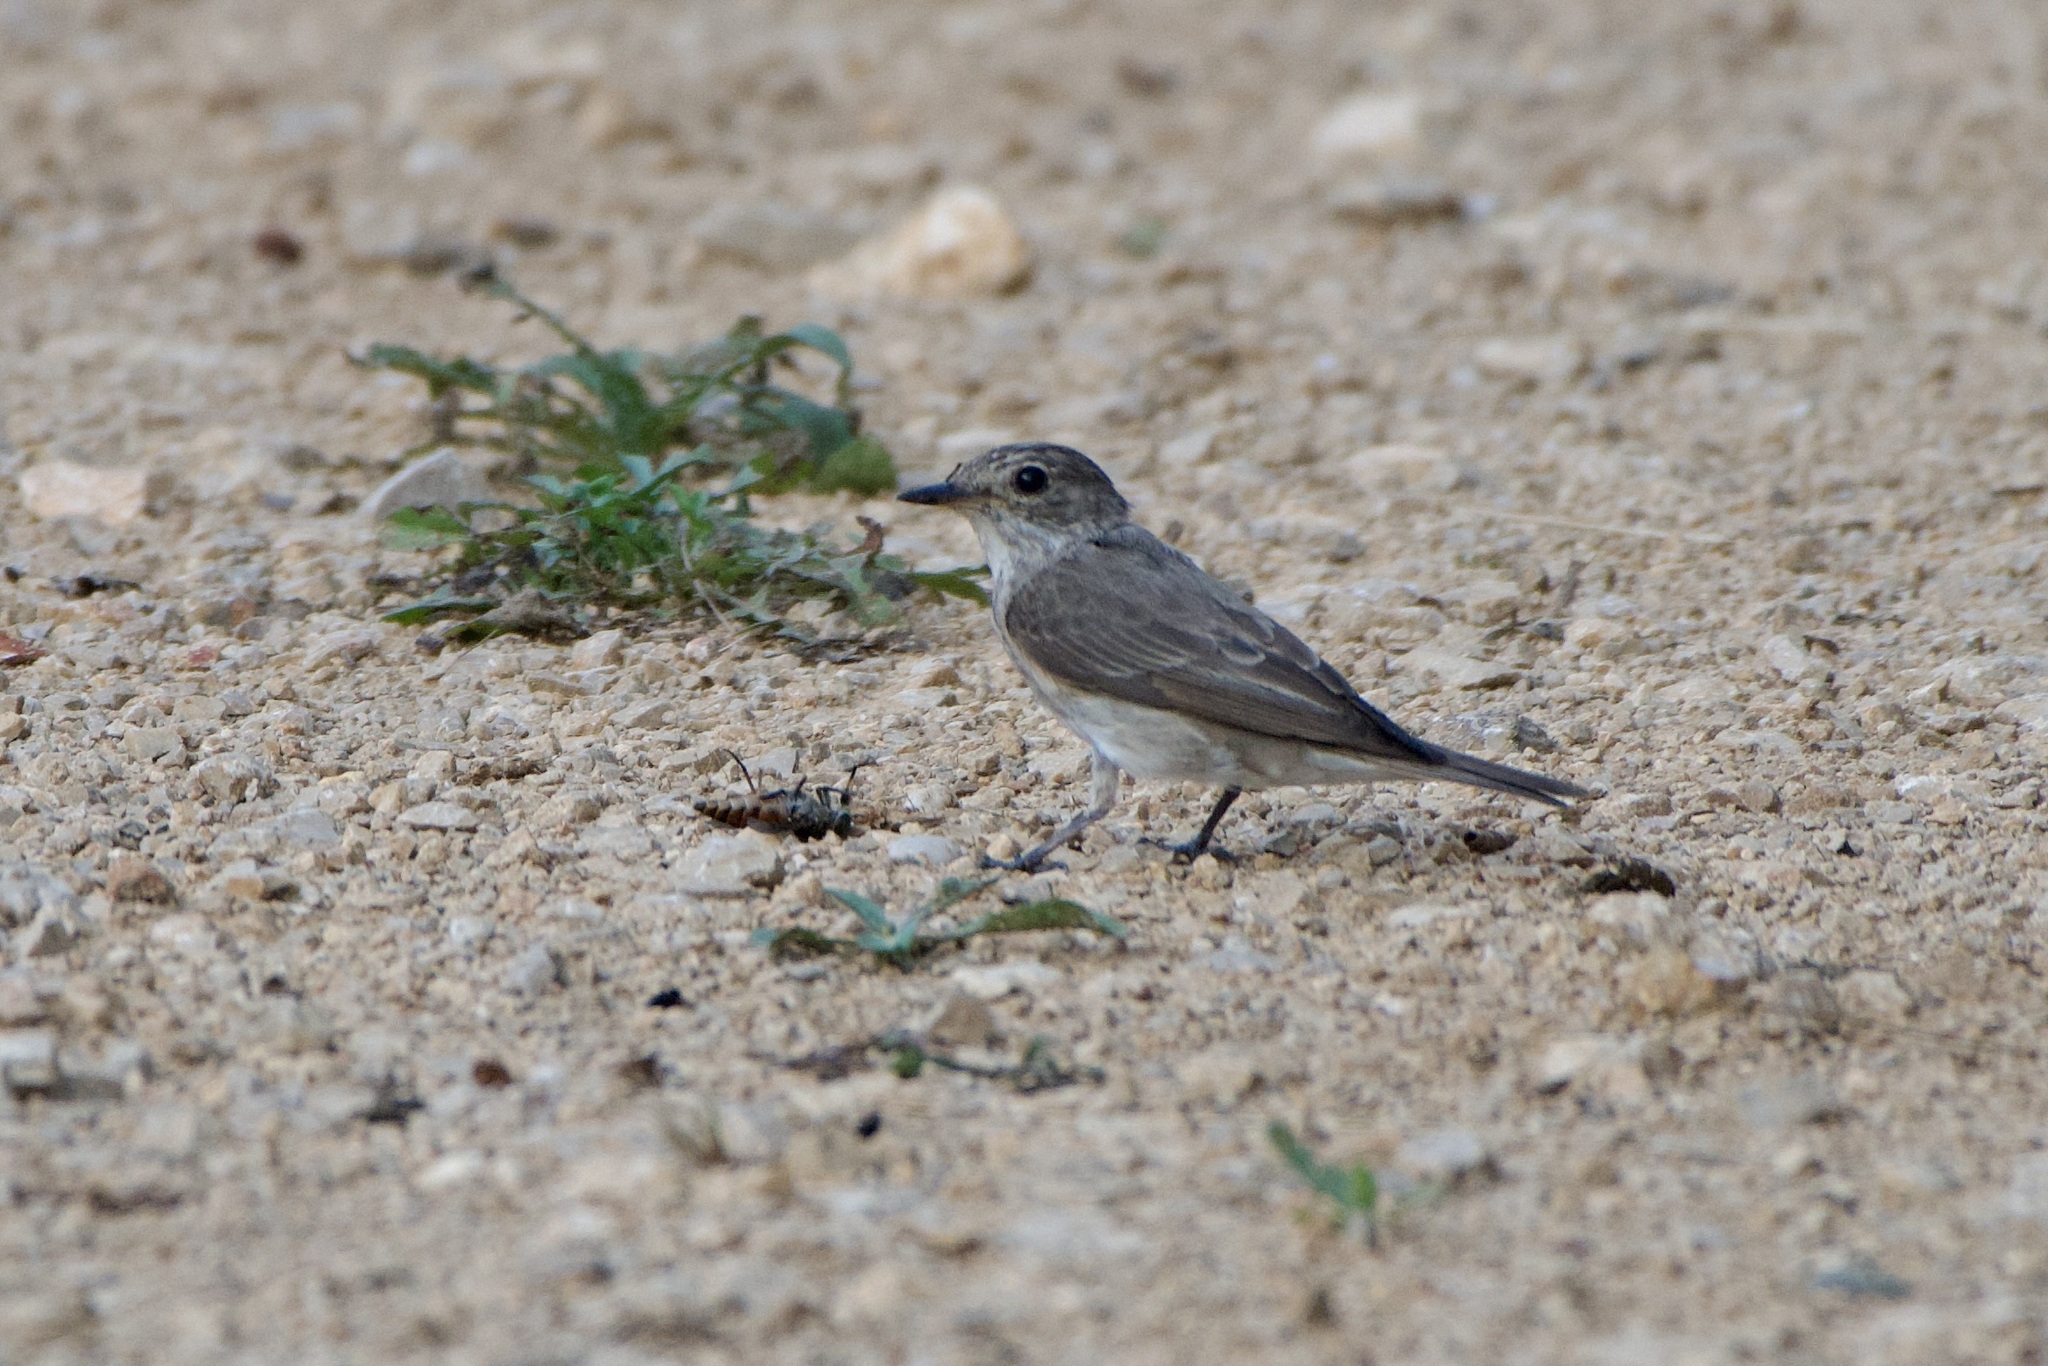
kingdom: Animalia
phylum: Chordata
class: Aves
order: Passeriformes
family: Muscicapidae
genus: Muscicapa
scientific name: Muscicapa striata
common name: Spotted flycatcher
